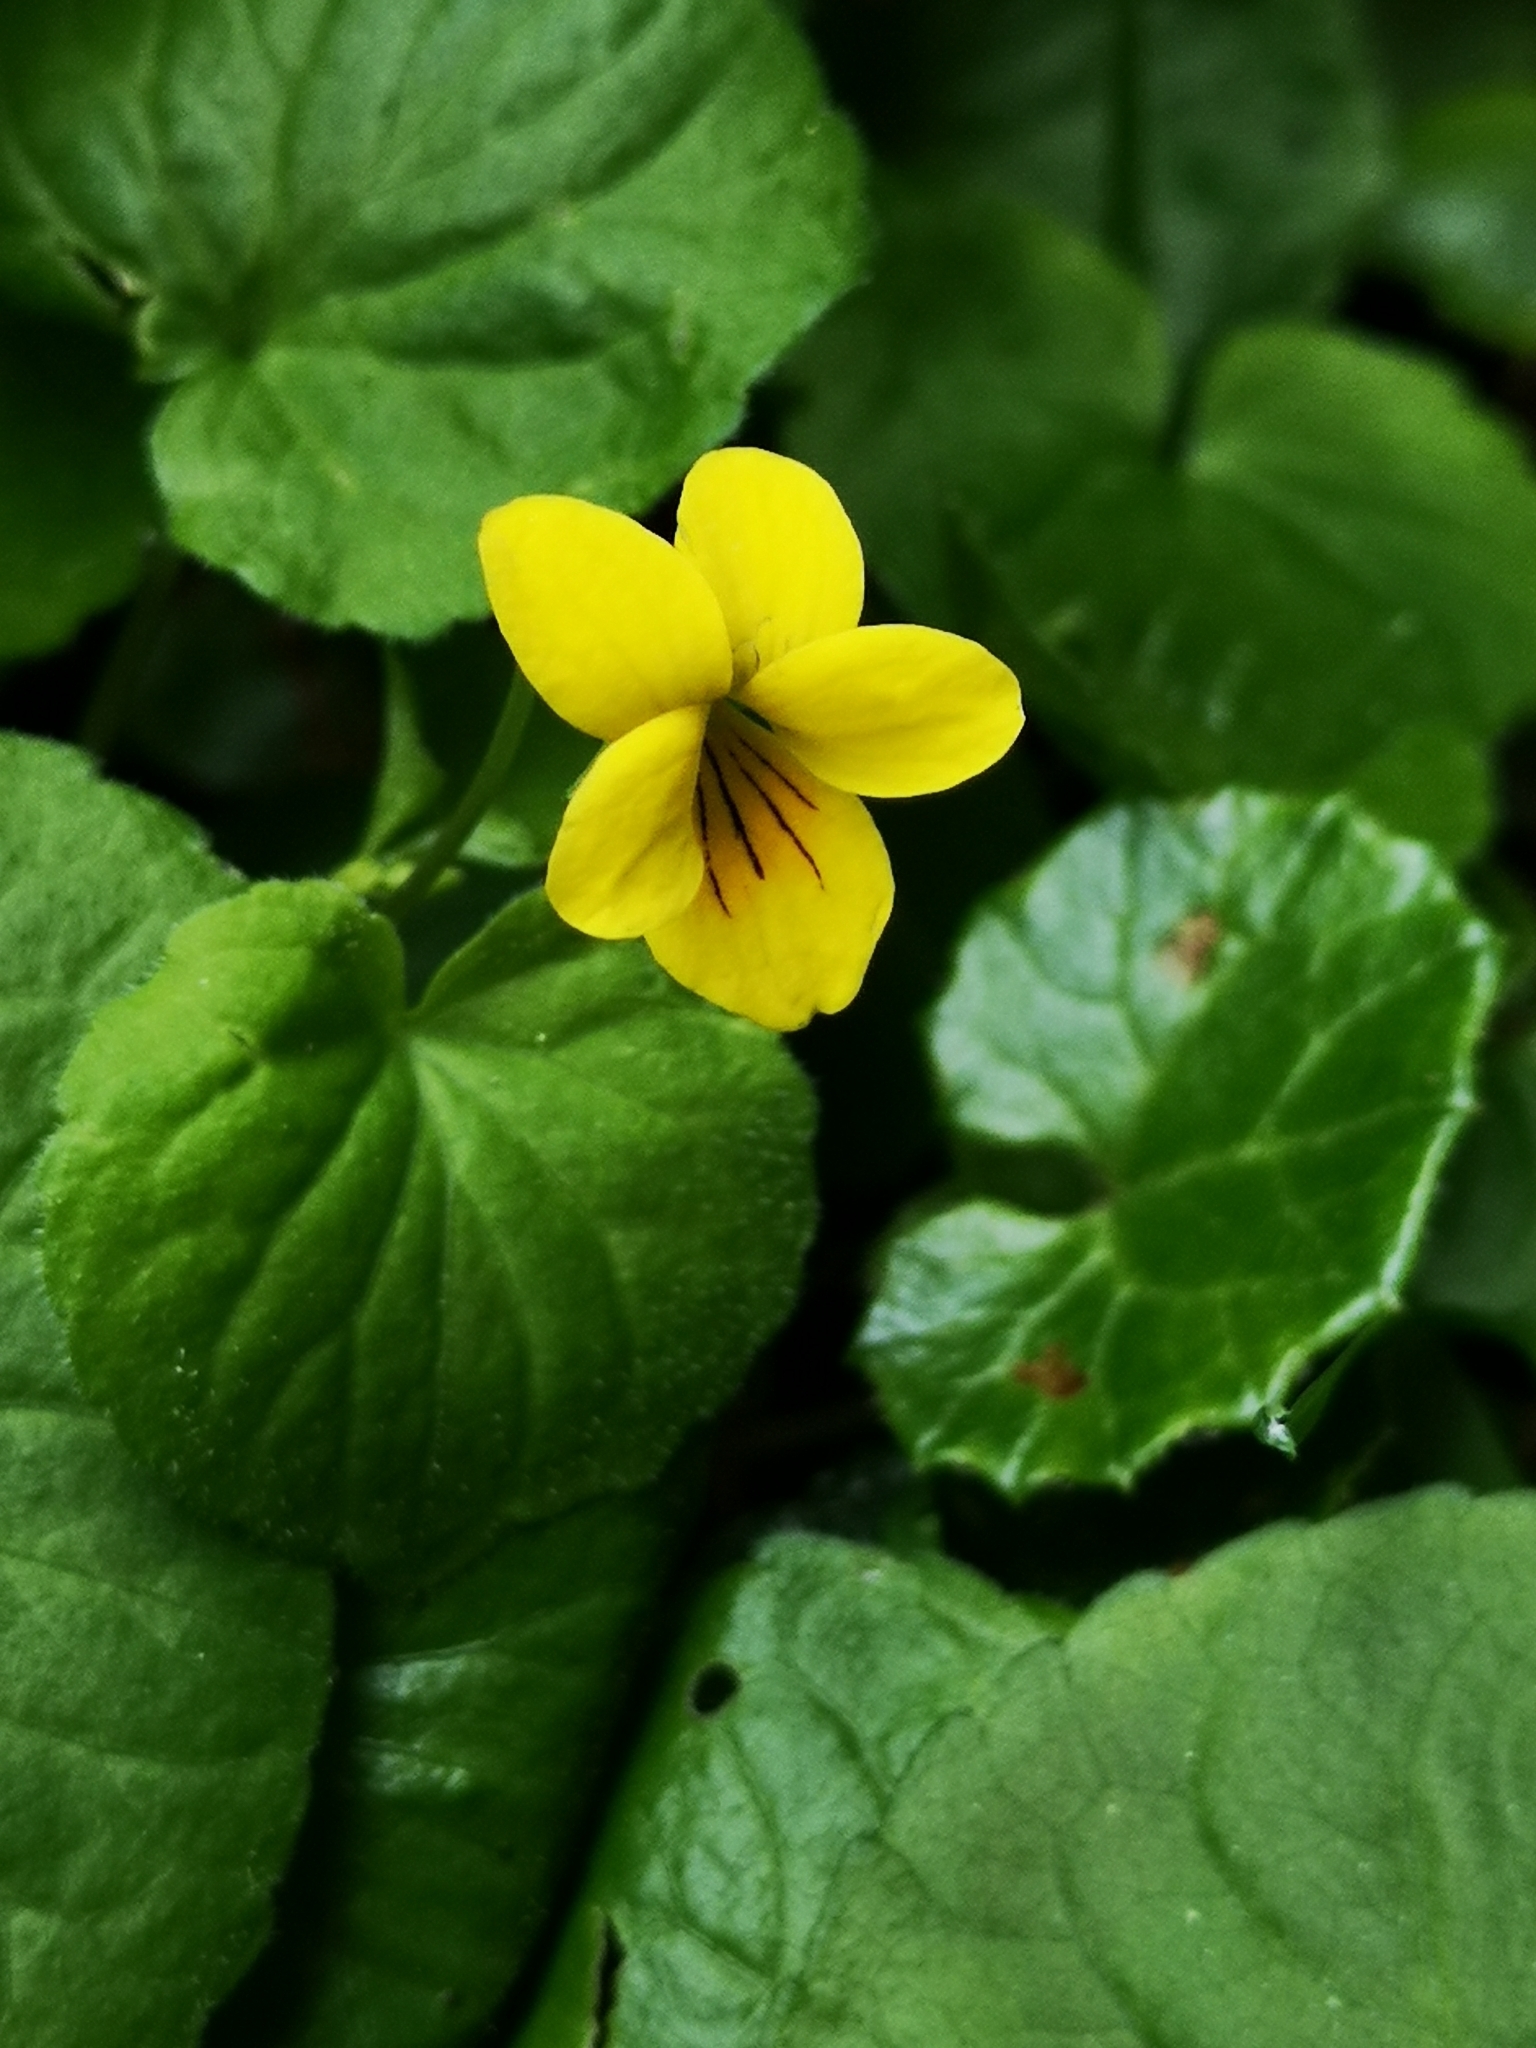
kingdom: Plantae
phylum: Tracheophyta
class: Magnoliopsida
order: Malpighiales
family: Violaceae
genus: Viola
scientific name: Viola biflora
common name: Alpine yellow violet
